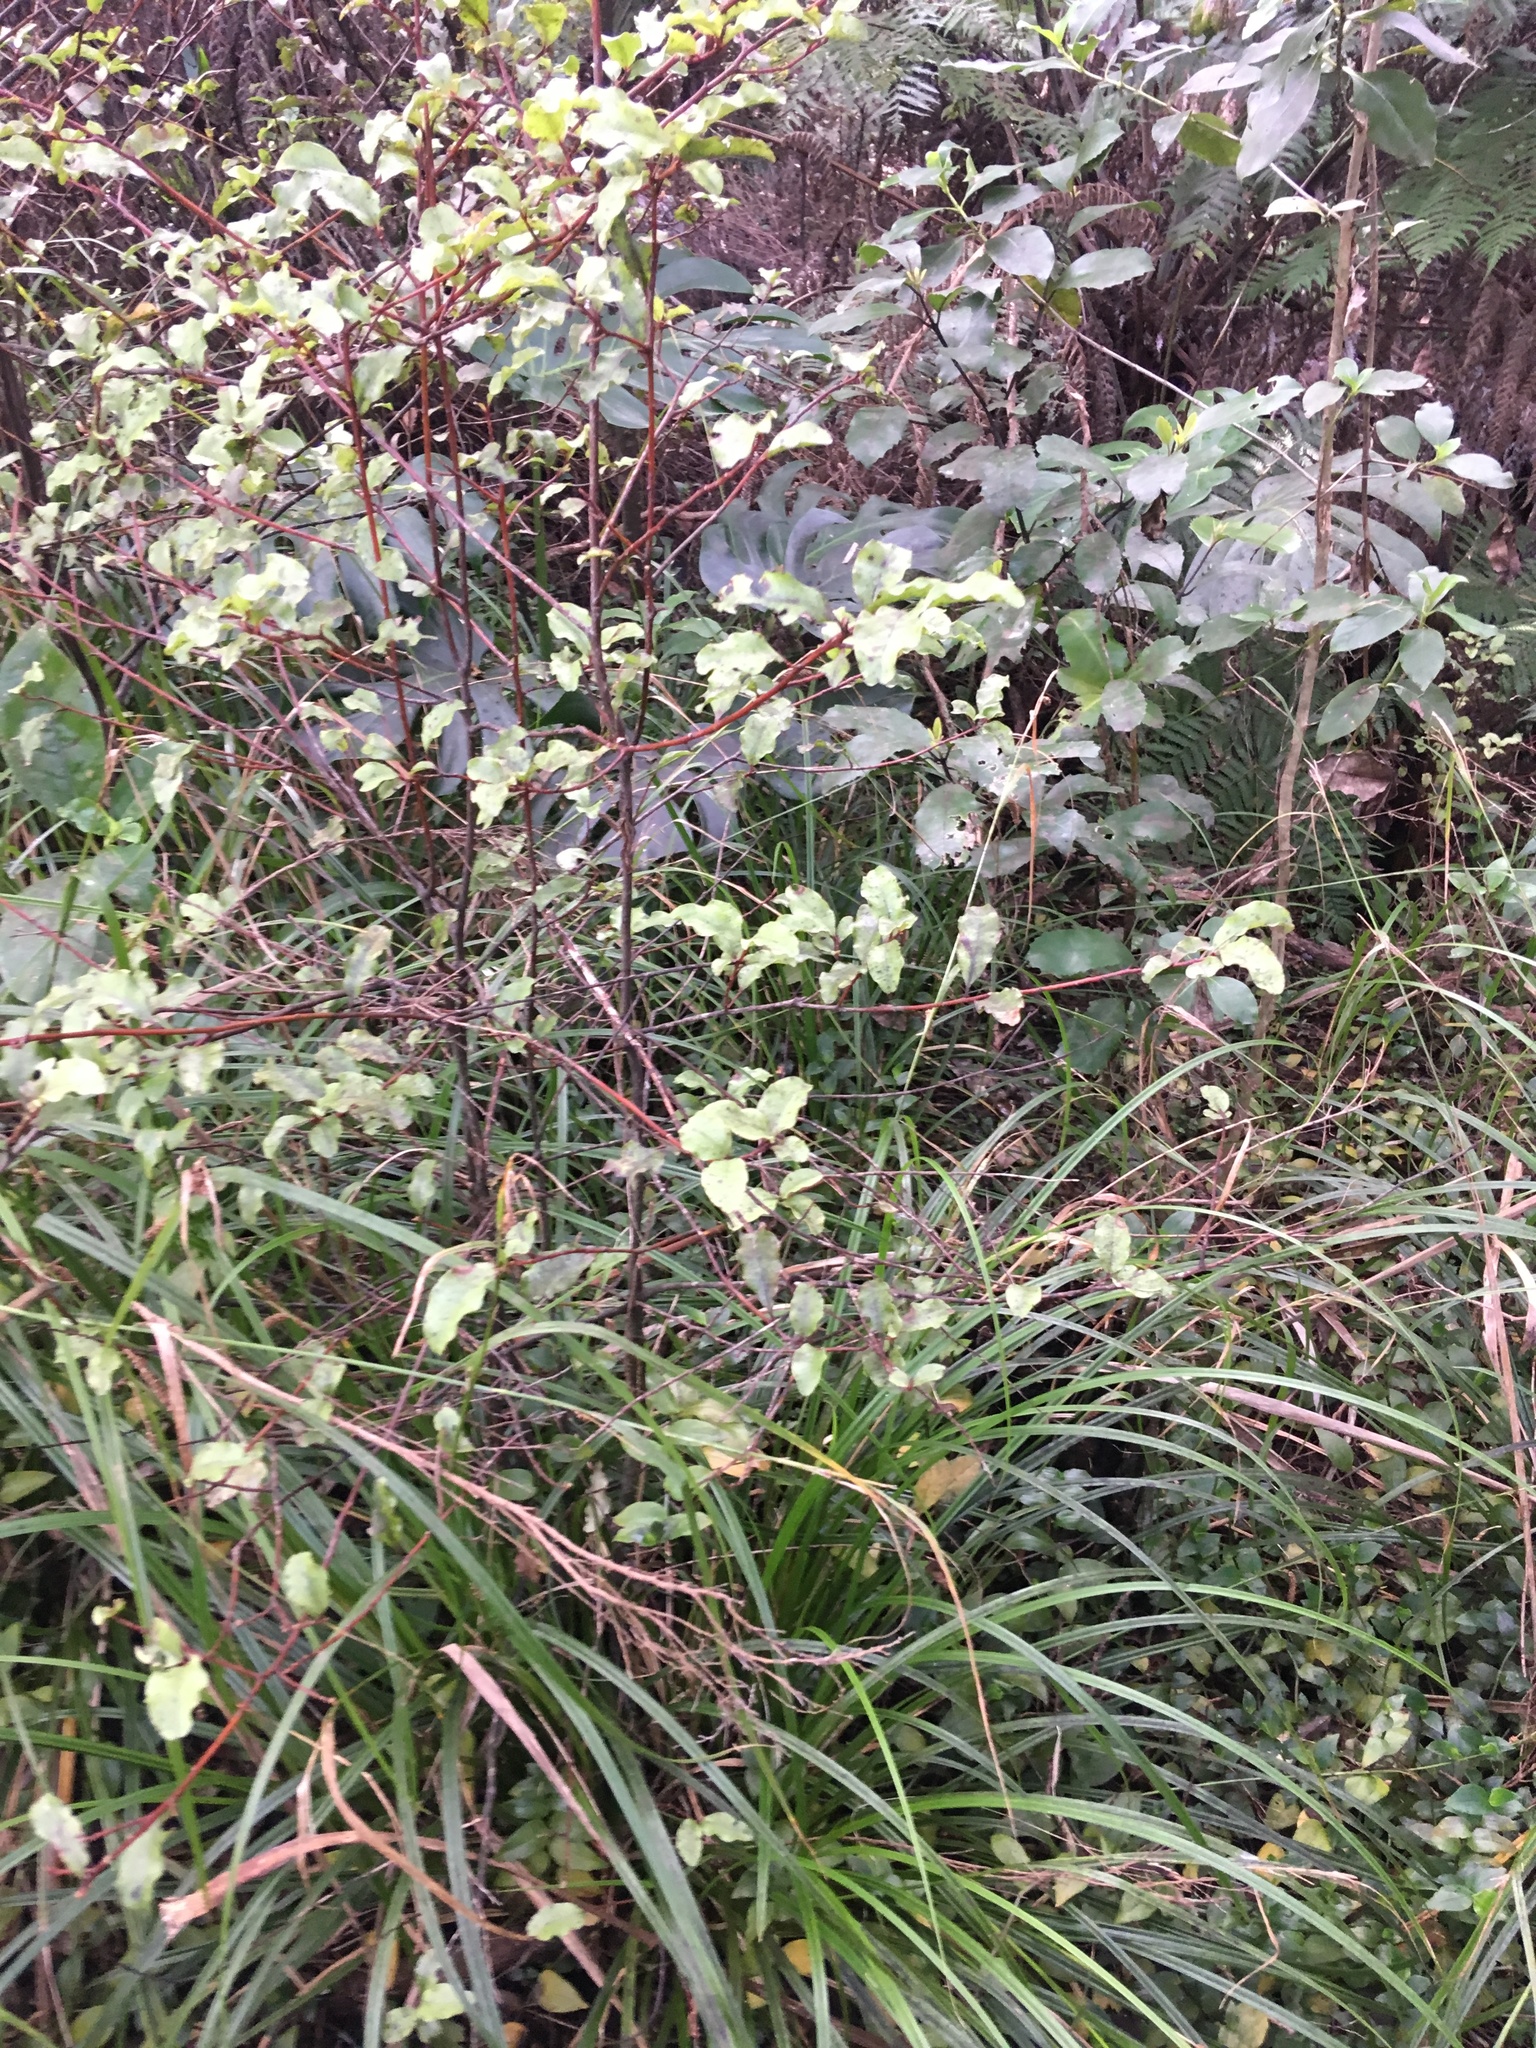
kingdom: Plantae
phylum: Tracheophyta
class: Magnoliopsida
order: Ericales
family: Primulaceae
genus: Myrsine
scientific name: Myrsine australis
